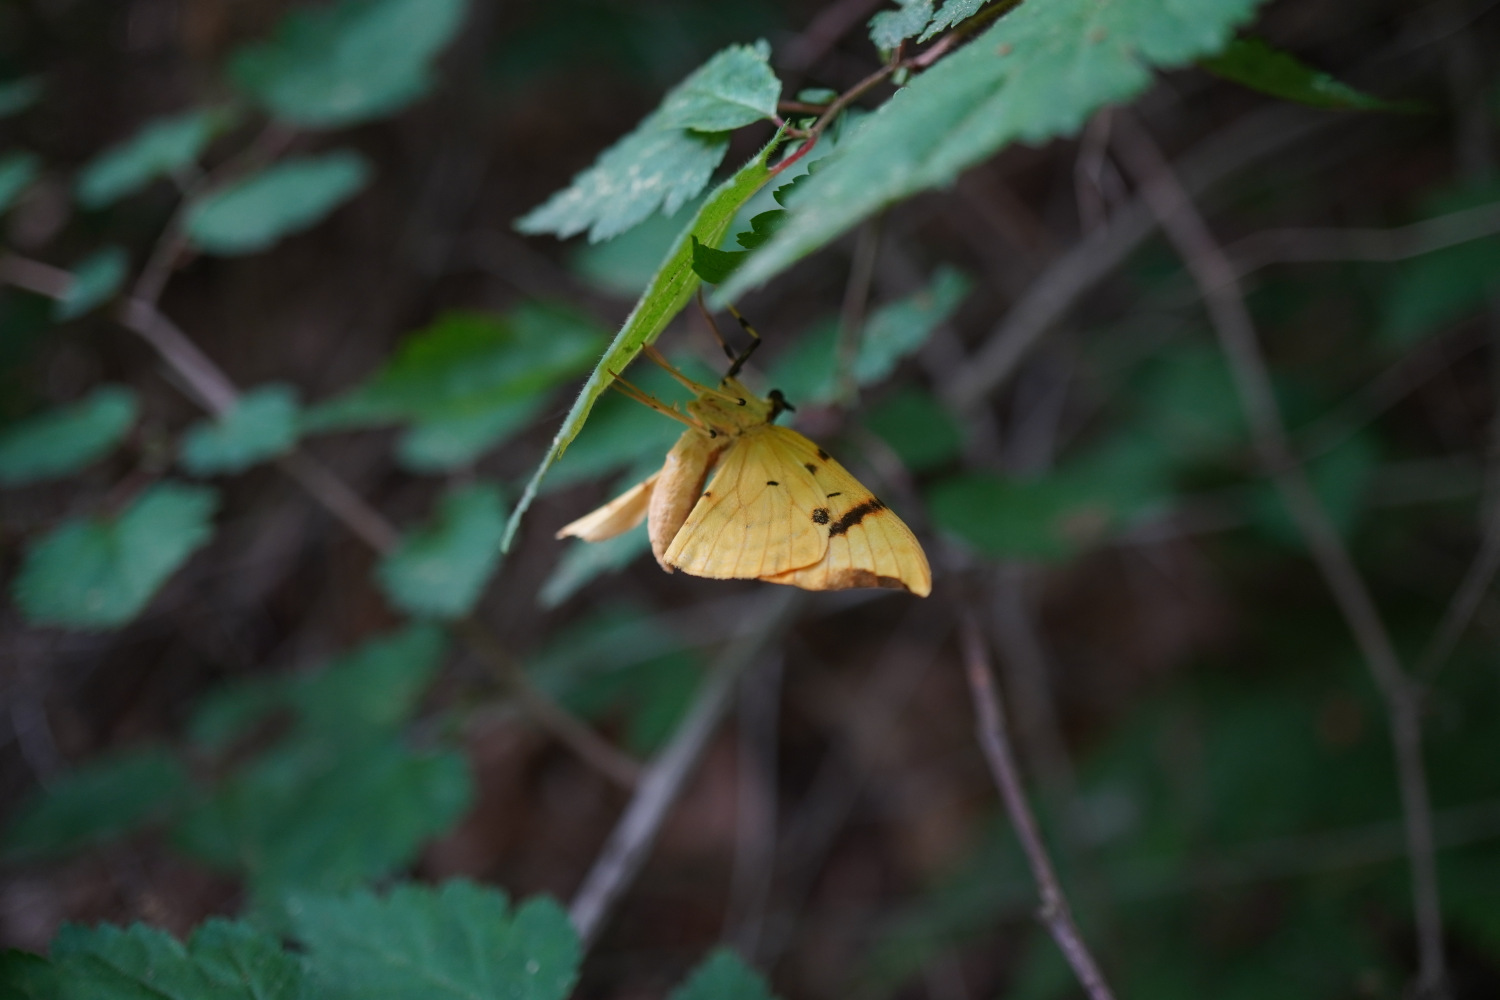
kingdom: Animalia
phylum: Arthropoda
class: Insecta
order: Lepidoptera
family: Geometridae
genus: Gandaritis
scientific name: Gandaritis fixseni
